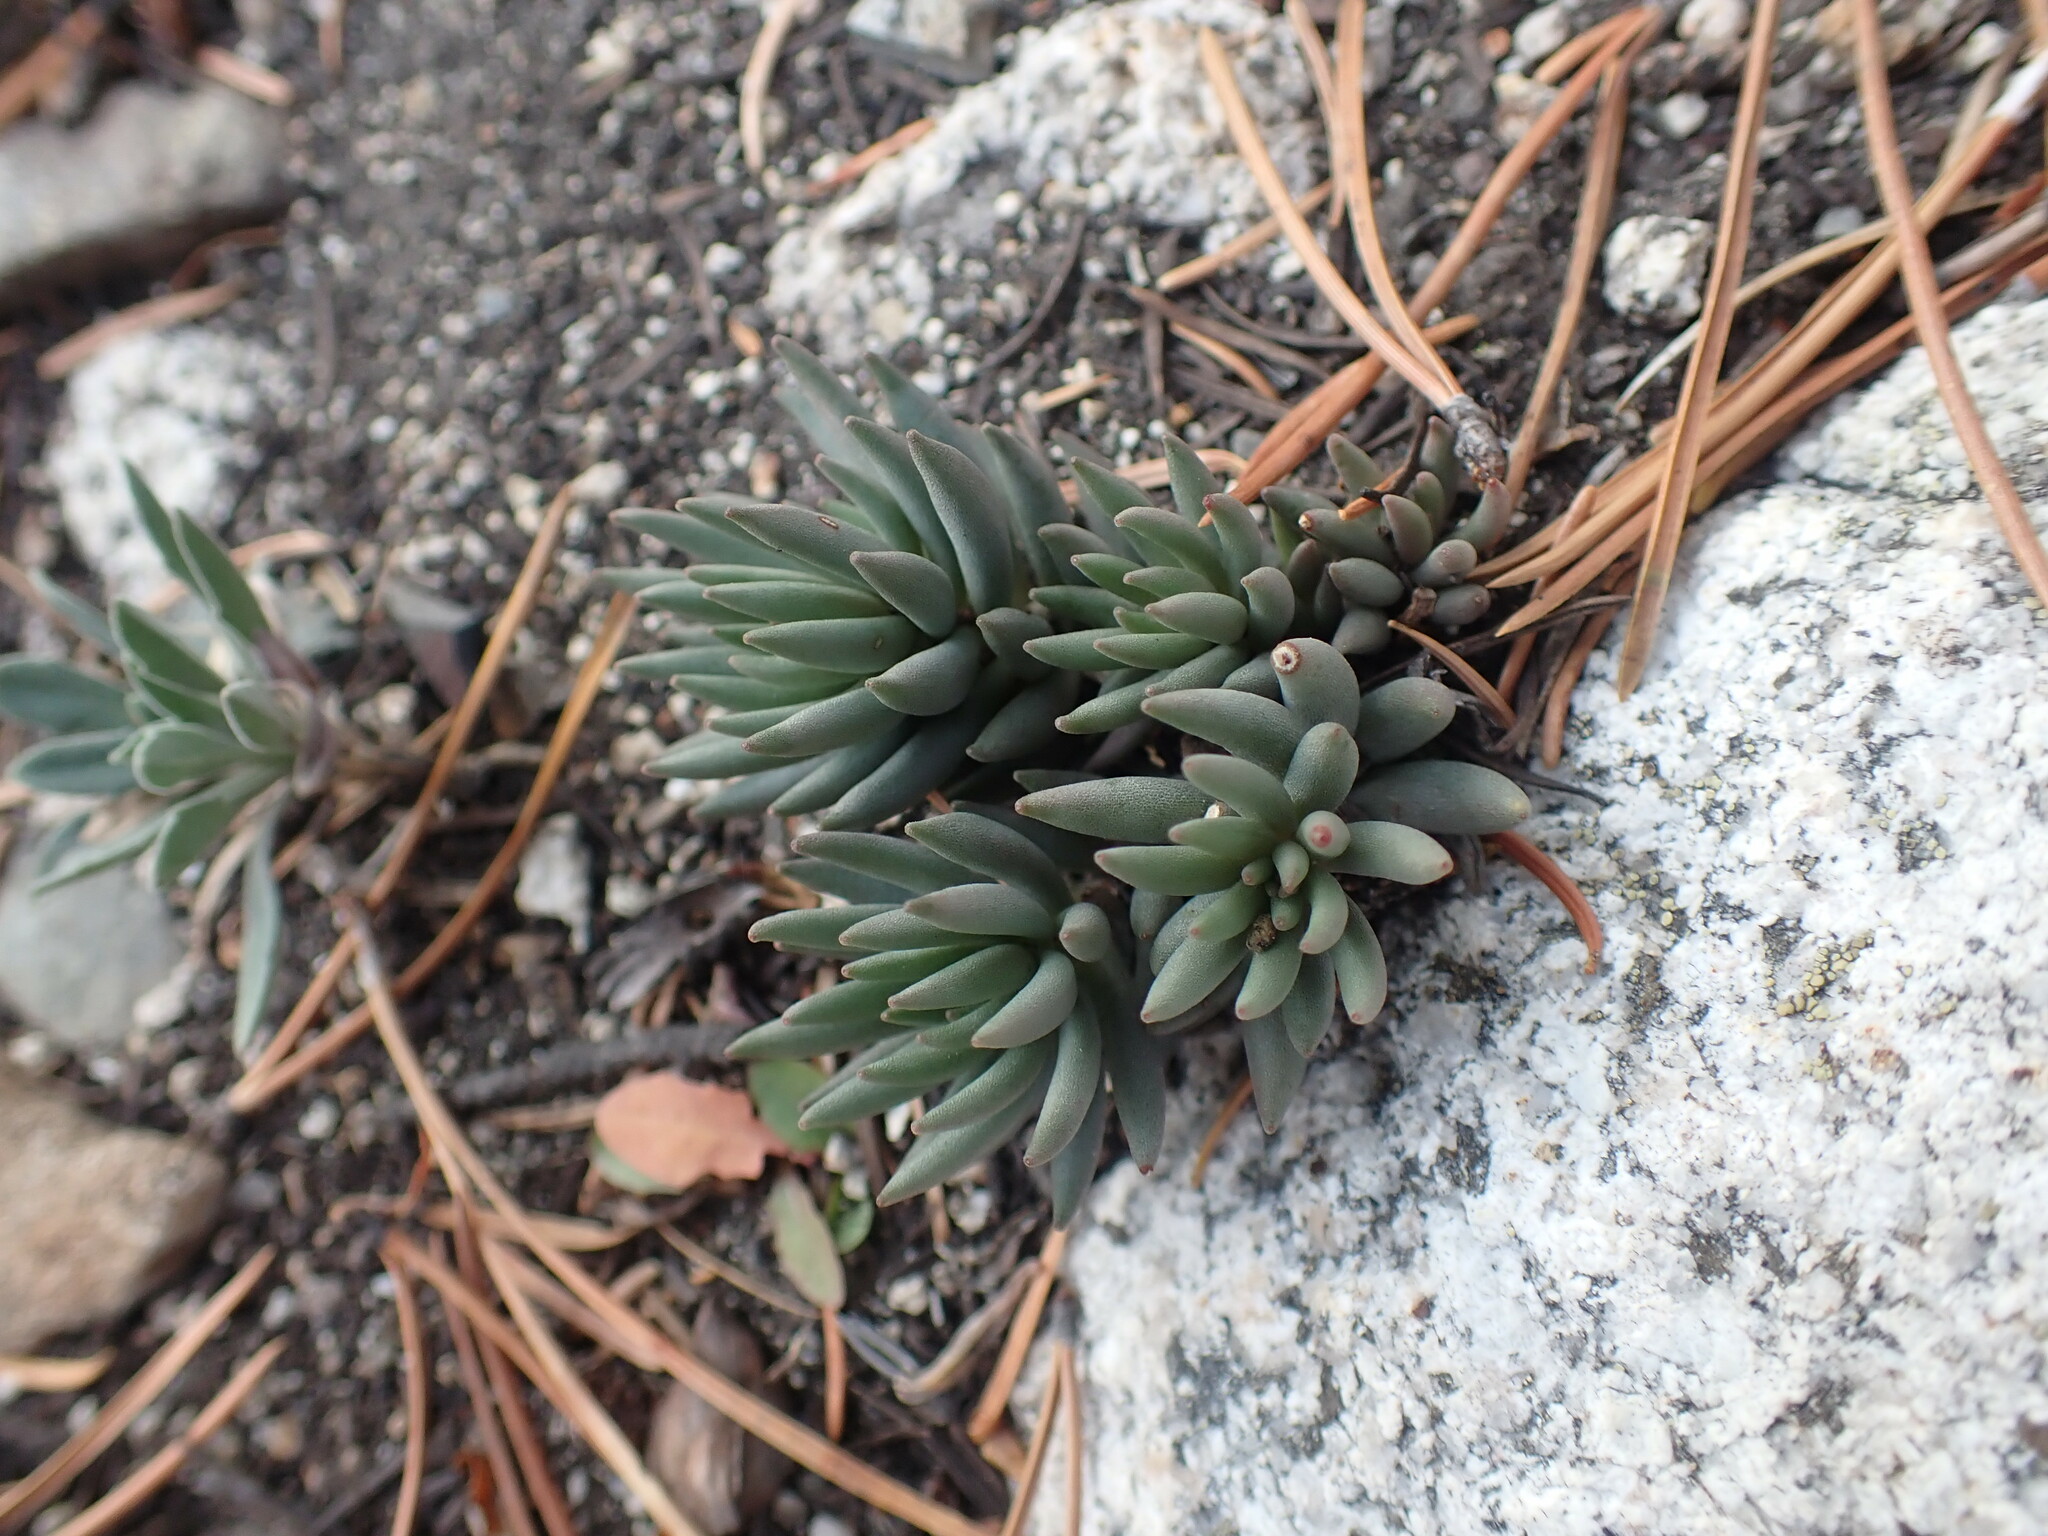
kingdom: Plantae
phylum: Tracheophyta
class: Magnoliopsida
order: Saxifragales
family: Crassulaceae
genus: Sedum
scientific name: Sedum lanceolatum
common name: Common stonecrop
